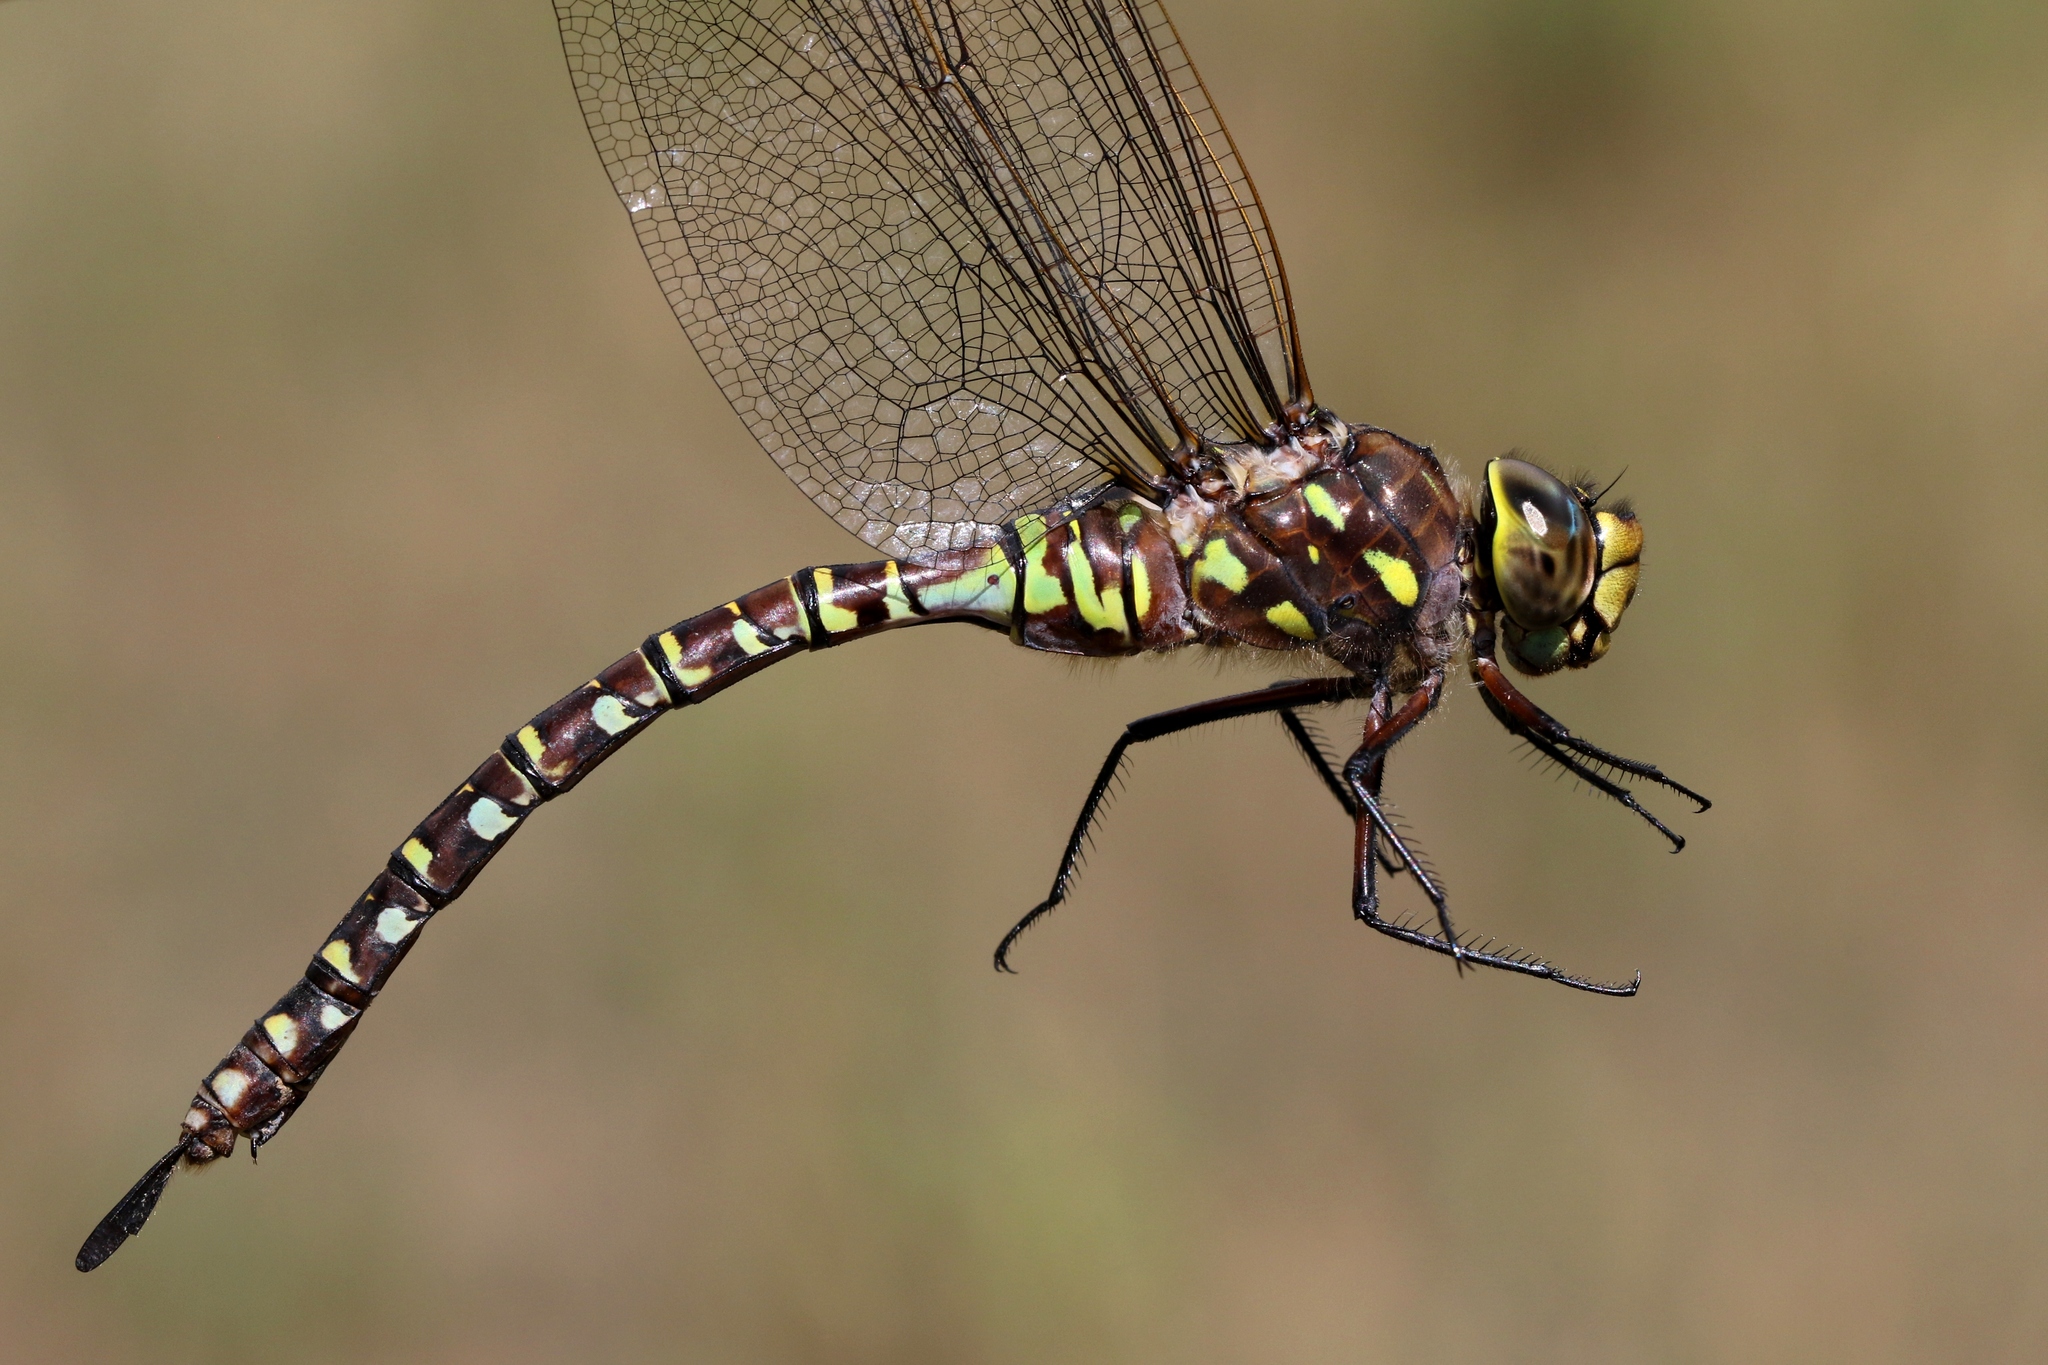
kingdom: Animalia
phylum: Arthropoda
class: Insecta
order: Odonata
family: Aeshnidae
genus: Aeshna
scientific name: Aeshna interrupta
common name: Variable darner
